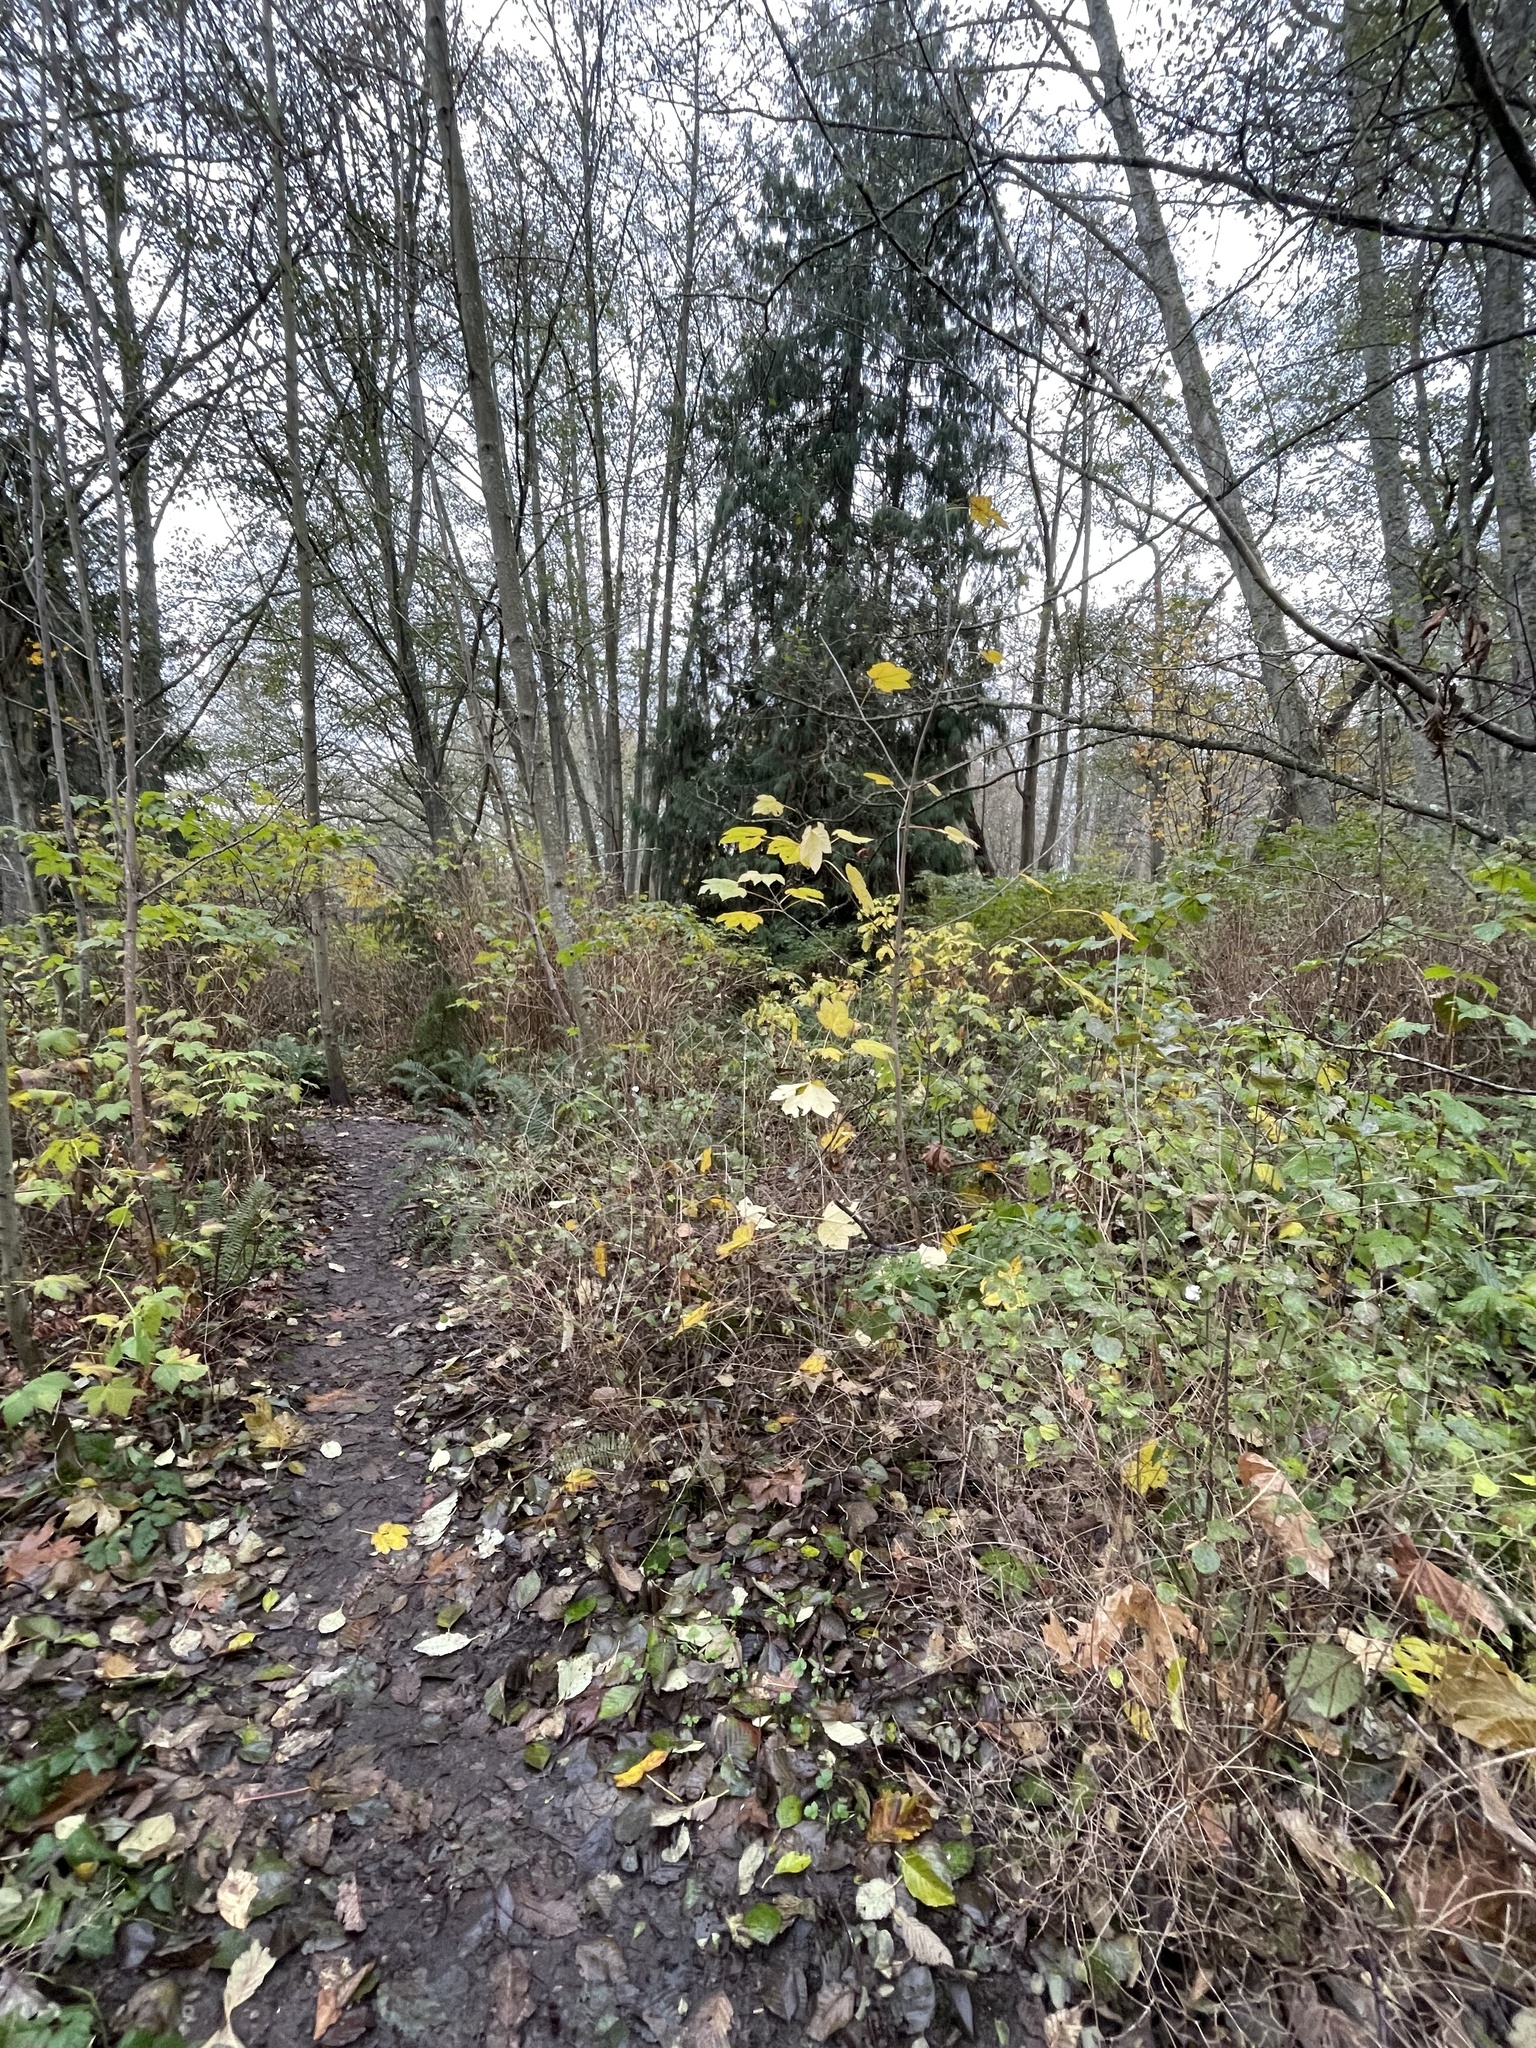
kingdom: Plantae
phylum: Tracheophyta
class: Magnoliopsida
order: Sapindales
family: Sapindaceae
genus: Acer
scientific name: Acer pseudoplatanus
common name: Sycamore
